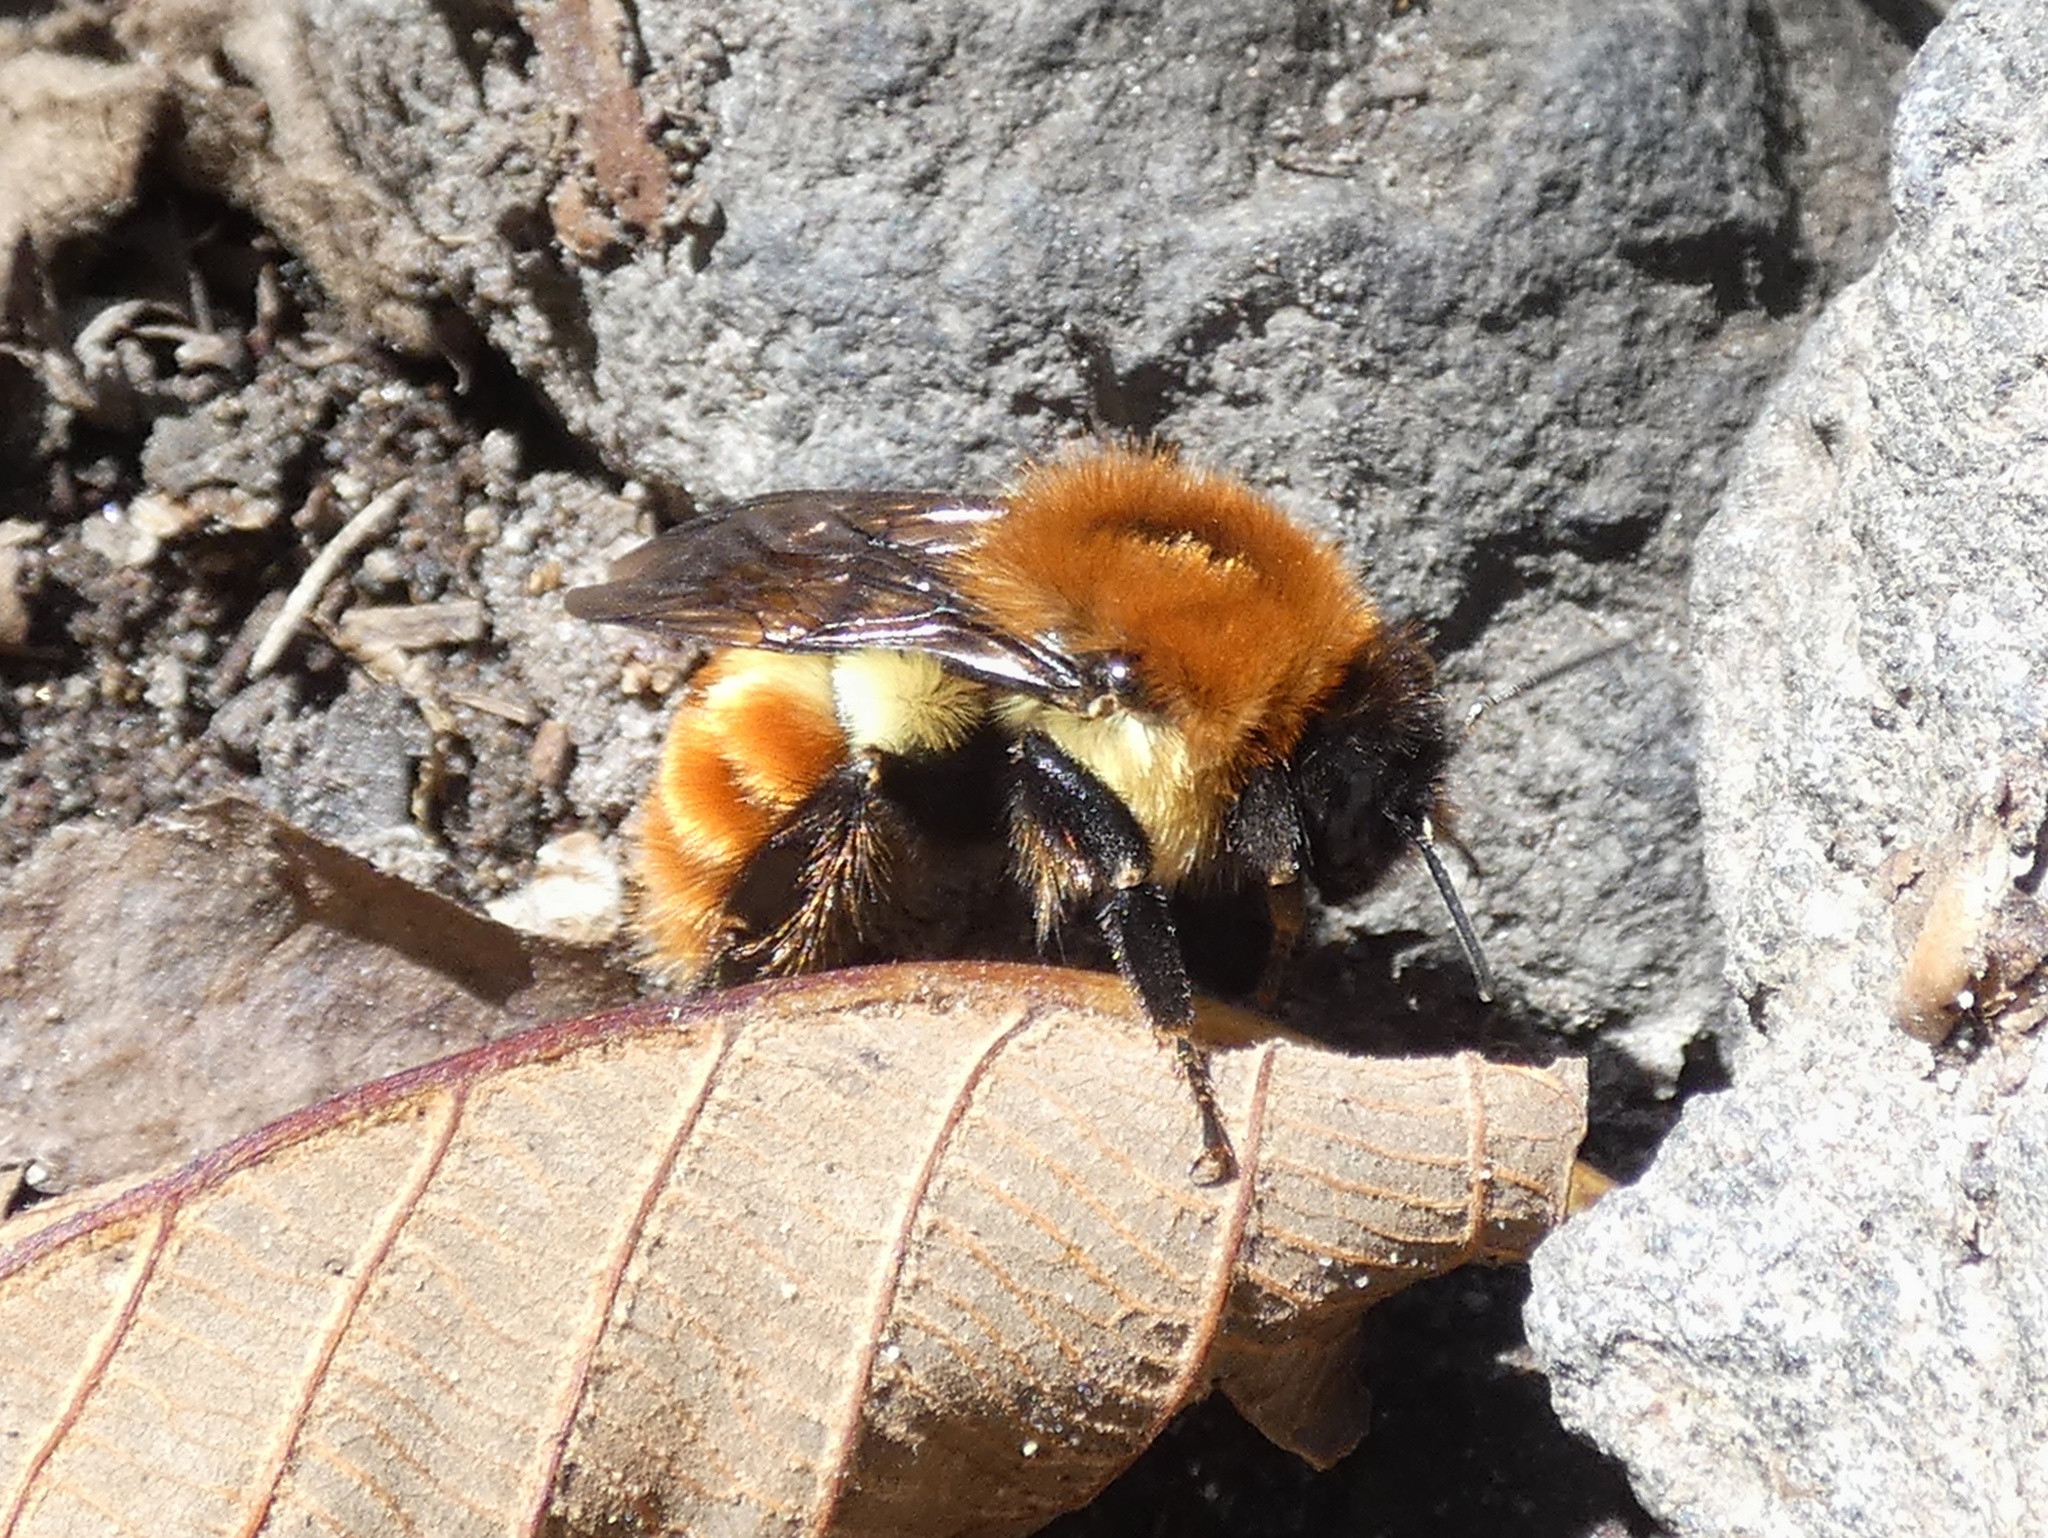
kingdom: Animalia
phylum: Arthropoda
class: Insecta
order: Hymenoptera
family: Apidae
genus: Bombus
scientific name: Bombus ephippiatus
